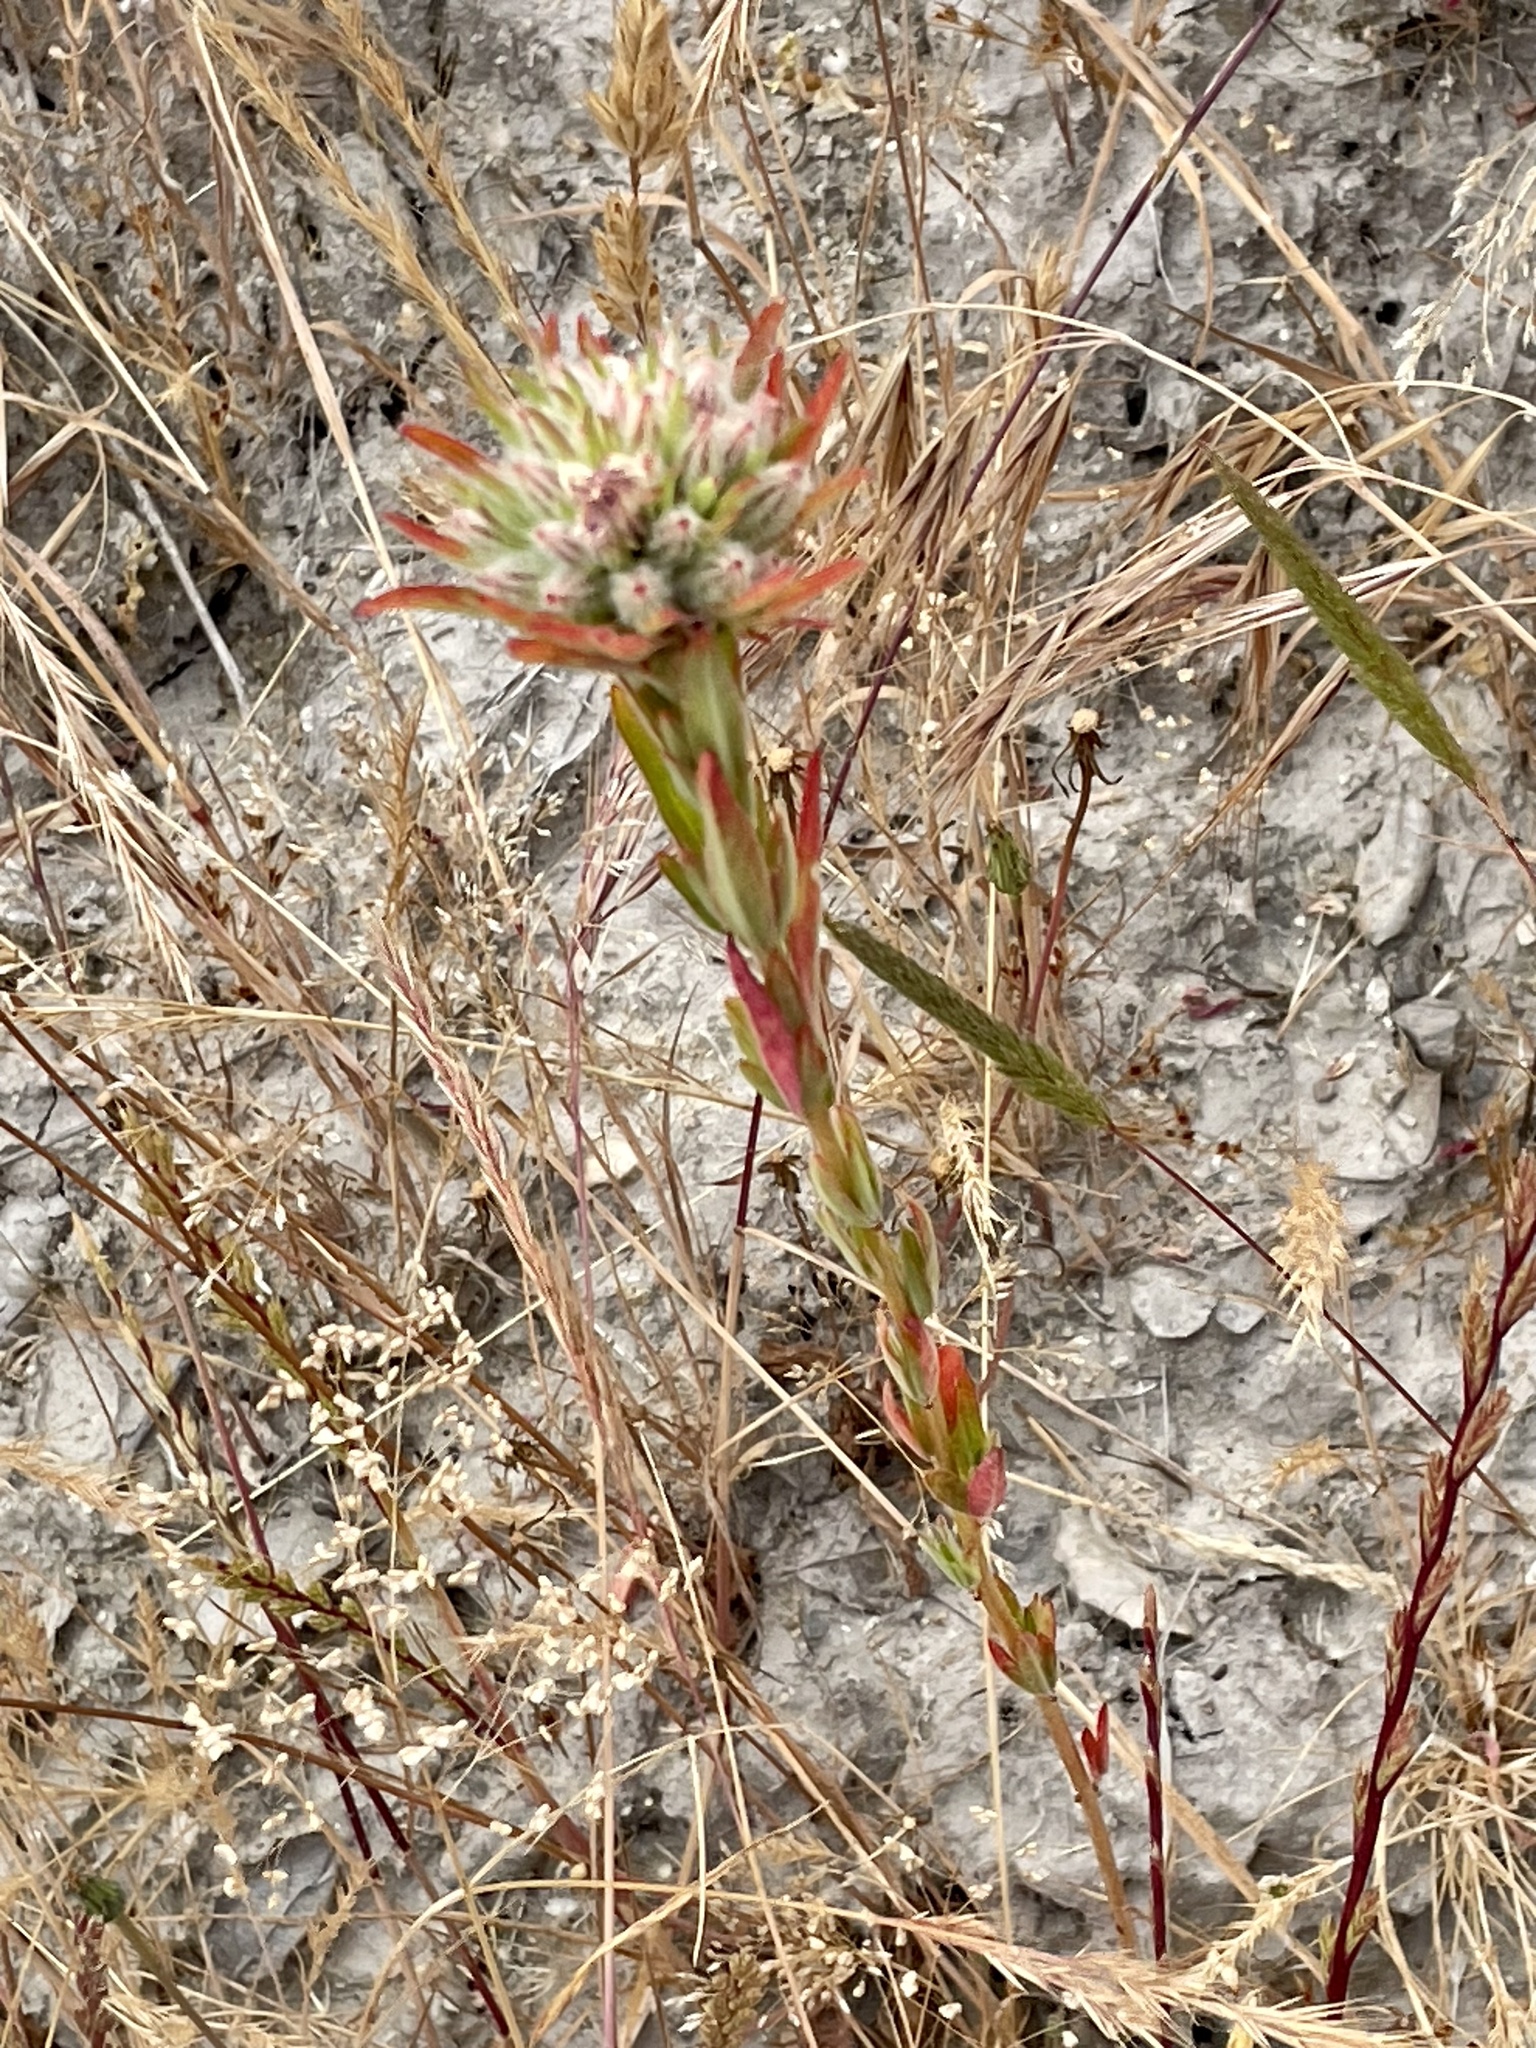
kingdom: Plantae
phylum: Tracheophyta
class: Magnoliopsida
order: Myrtales
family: Onagraceae
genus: Clarkia
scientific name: Clarkia purpurea
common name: Purple clarkia
